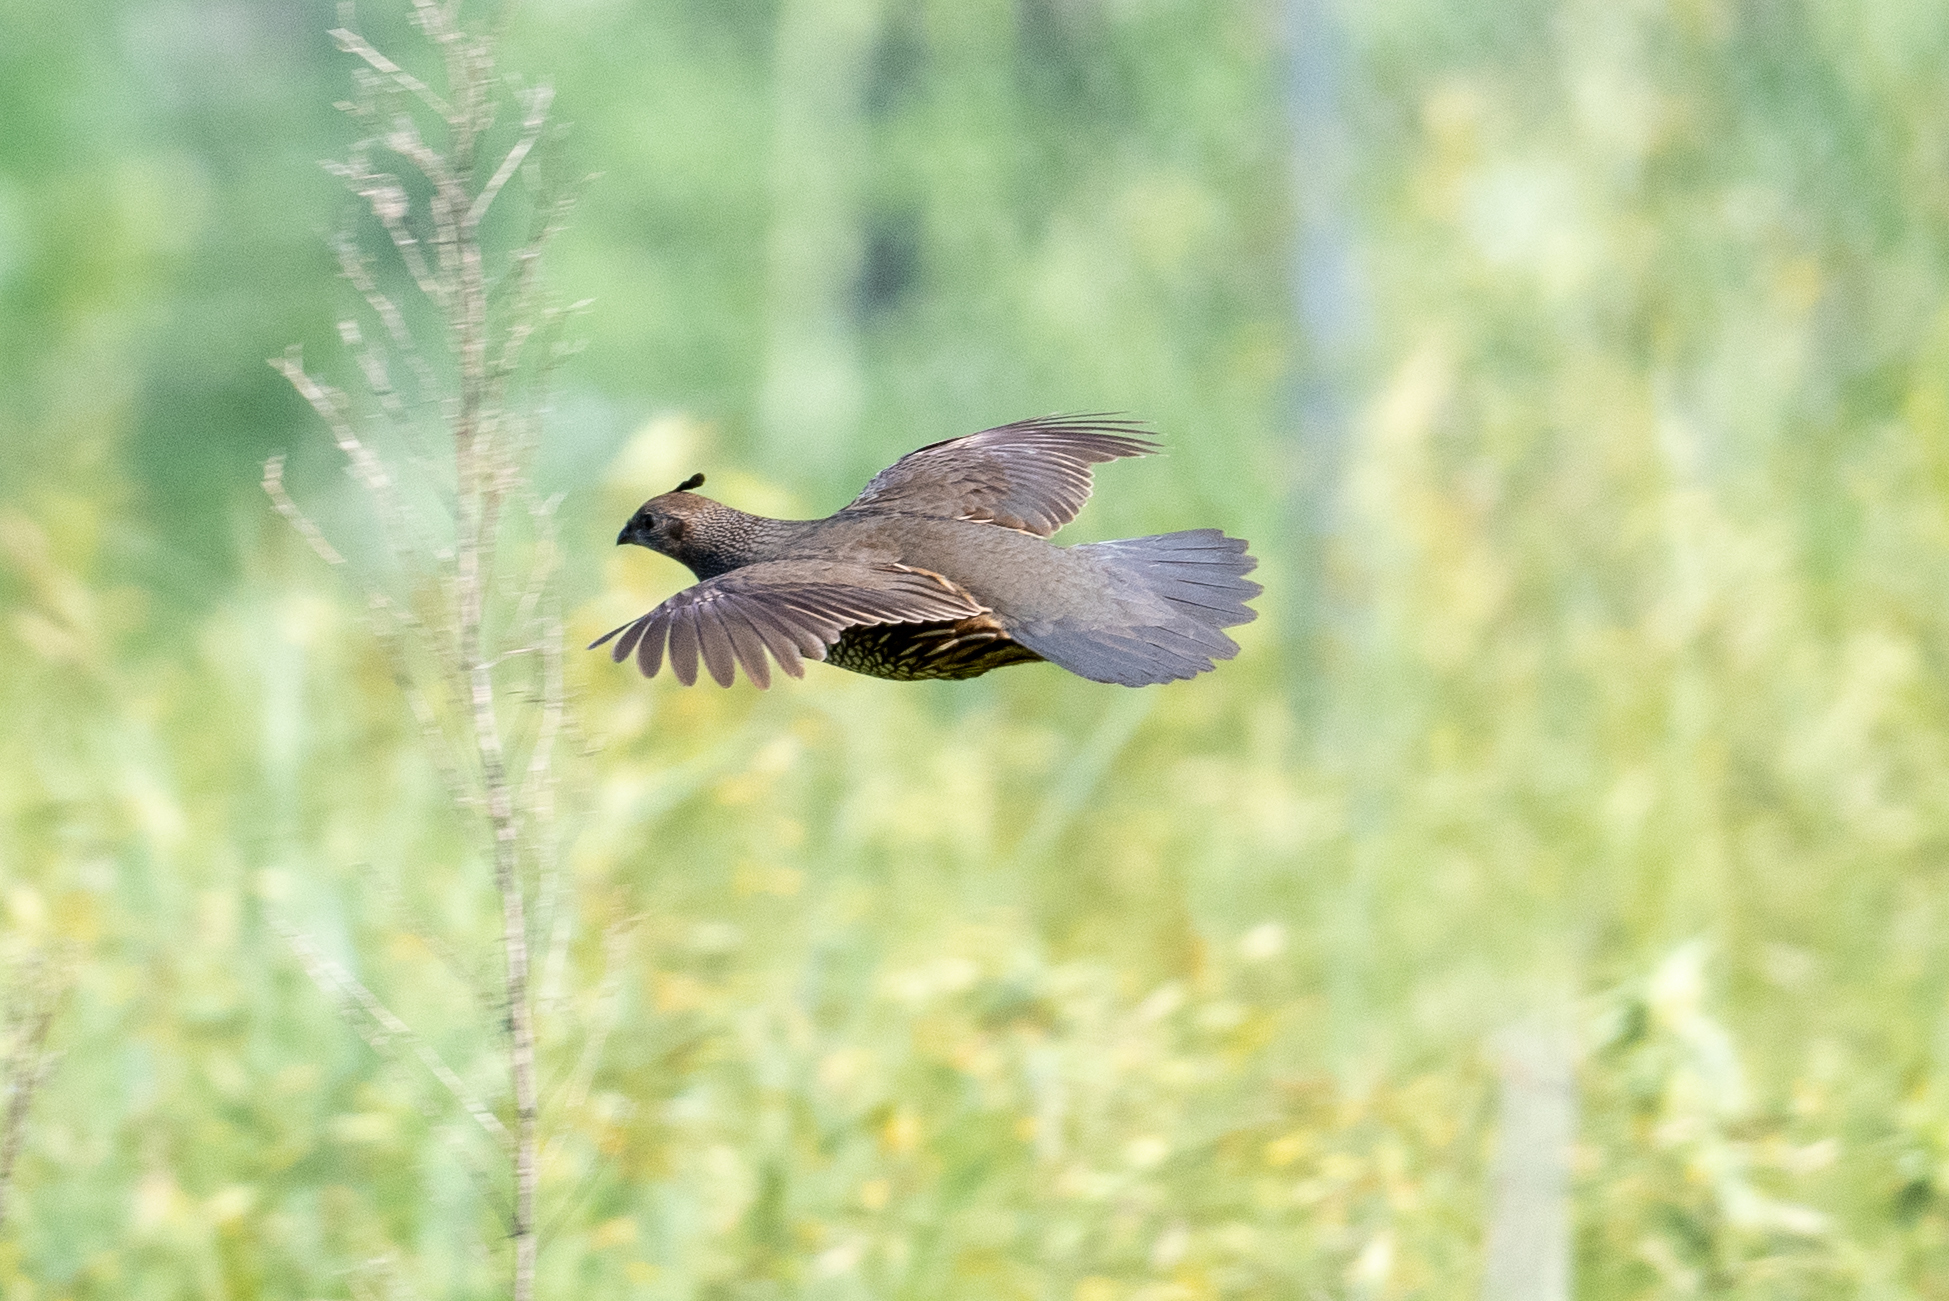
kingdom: Animalia
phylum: Chordata
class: Aves
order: Galliformes
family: Odontophoridae
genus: Callipepla
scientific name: Callipepla californica
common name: California quail
